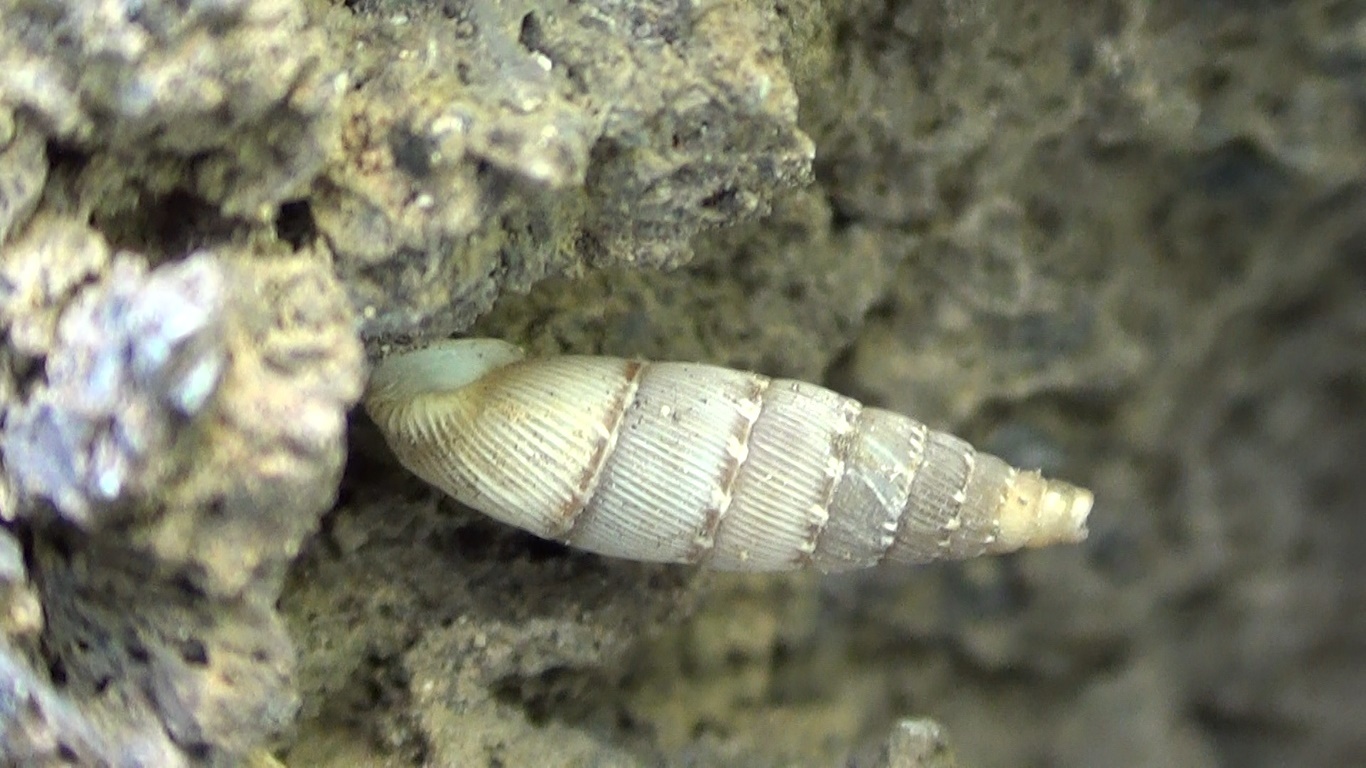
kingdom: Animalia
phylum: Mollusca
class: Gastropoda
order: Stylommatophora
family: Clausiliidae
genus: Papillifera
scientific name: Papillifera papillaris
